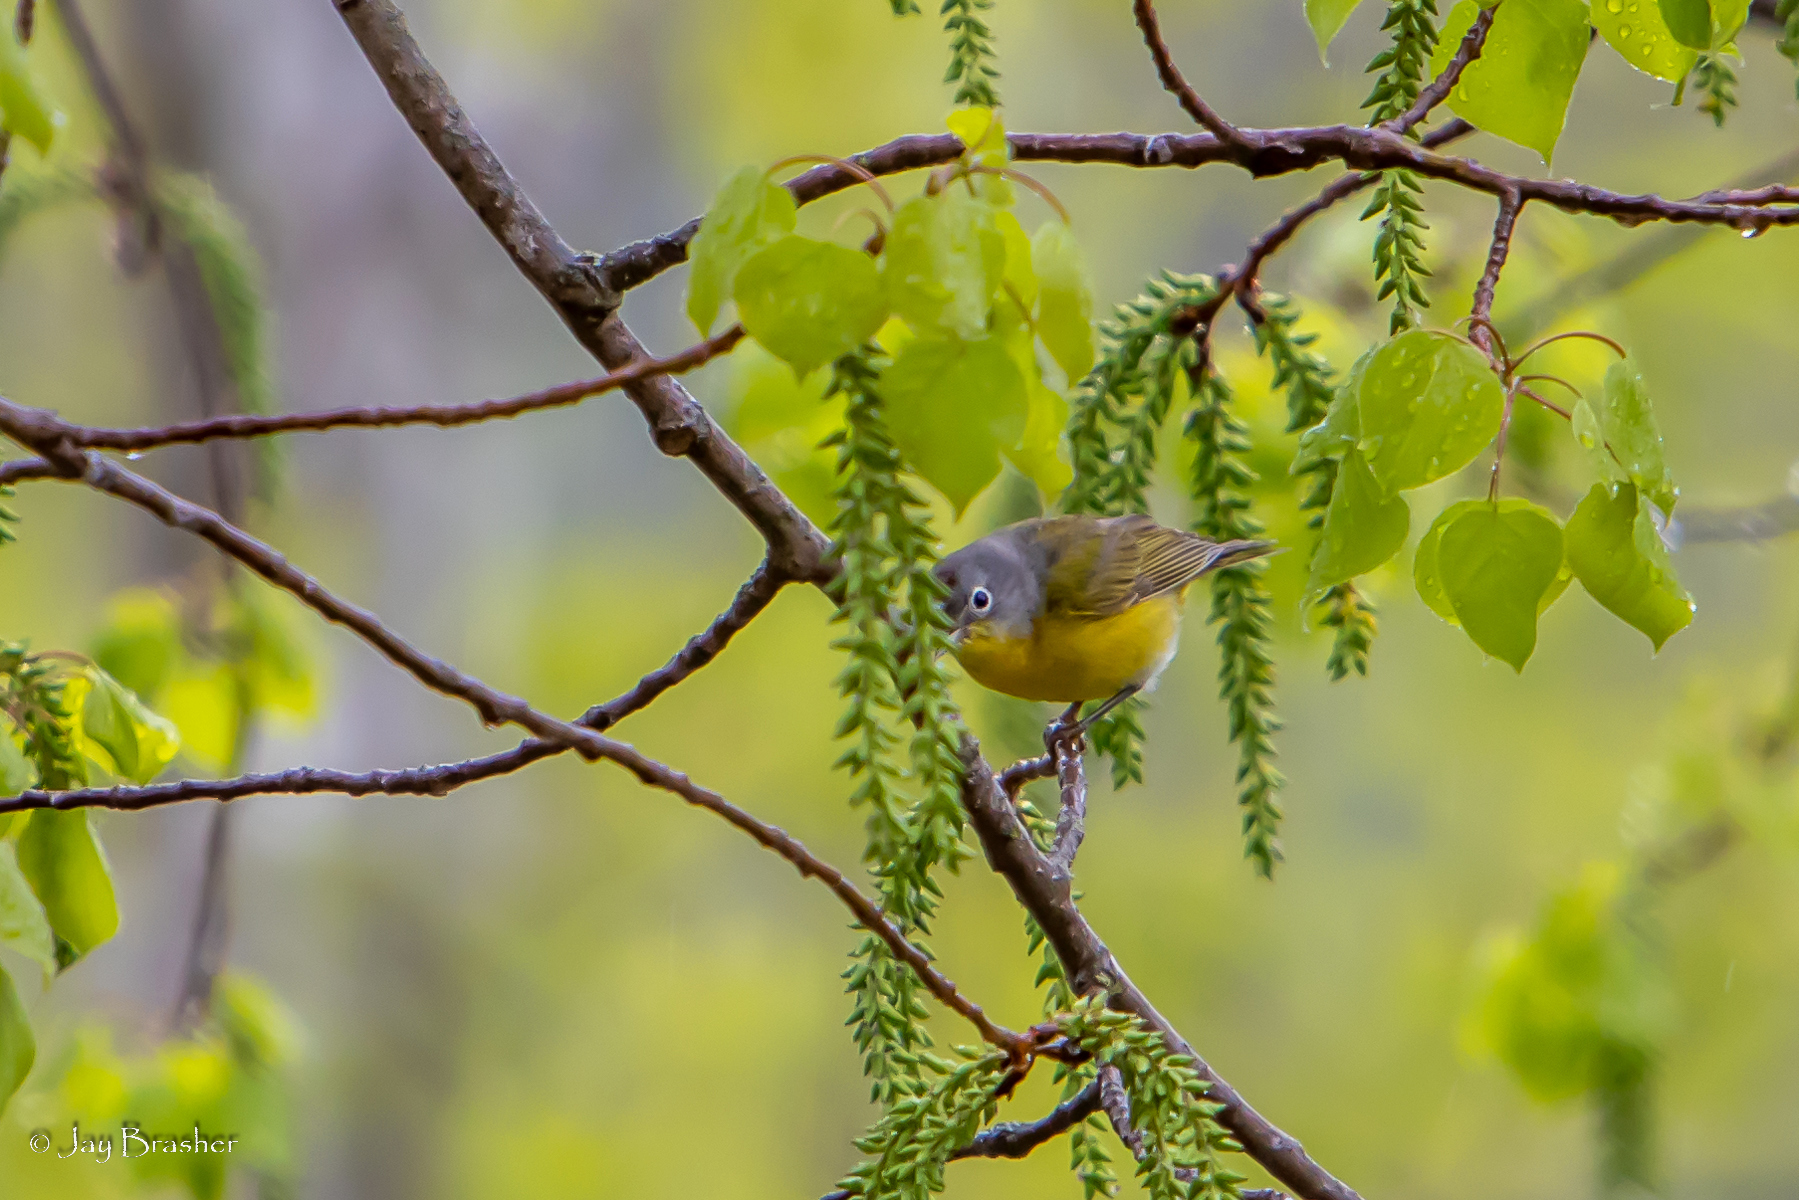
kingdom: Animalia
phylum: Chordata
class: Aves
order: Passeriformes
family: Parulidae
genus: Leiothlypis
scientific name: Leiothlypis ruficapilla
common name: Nashville warbler
